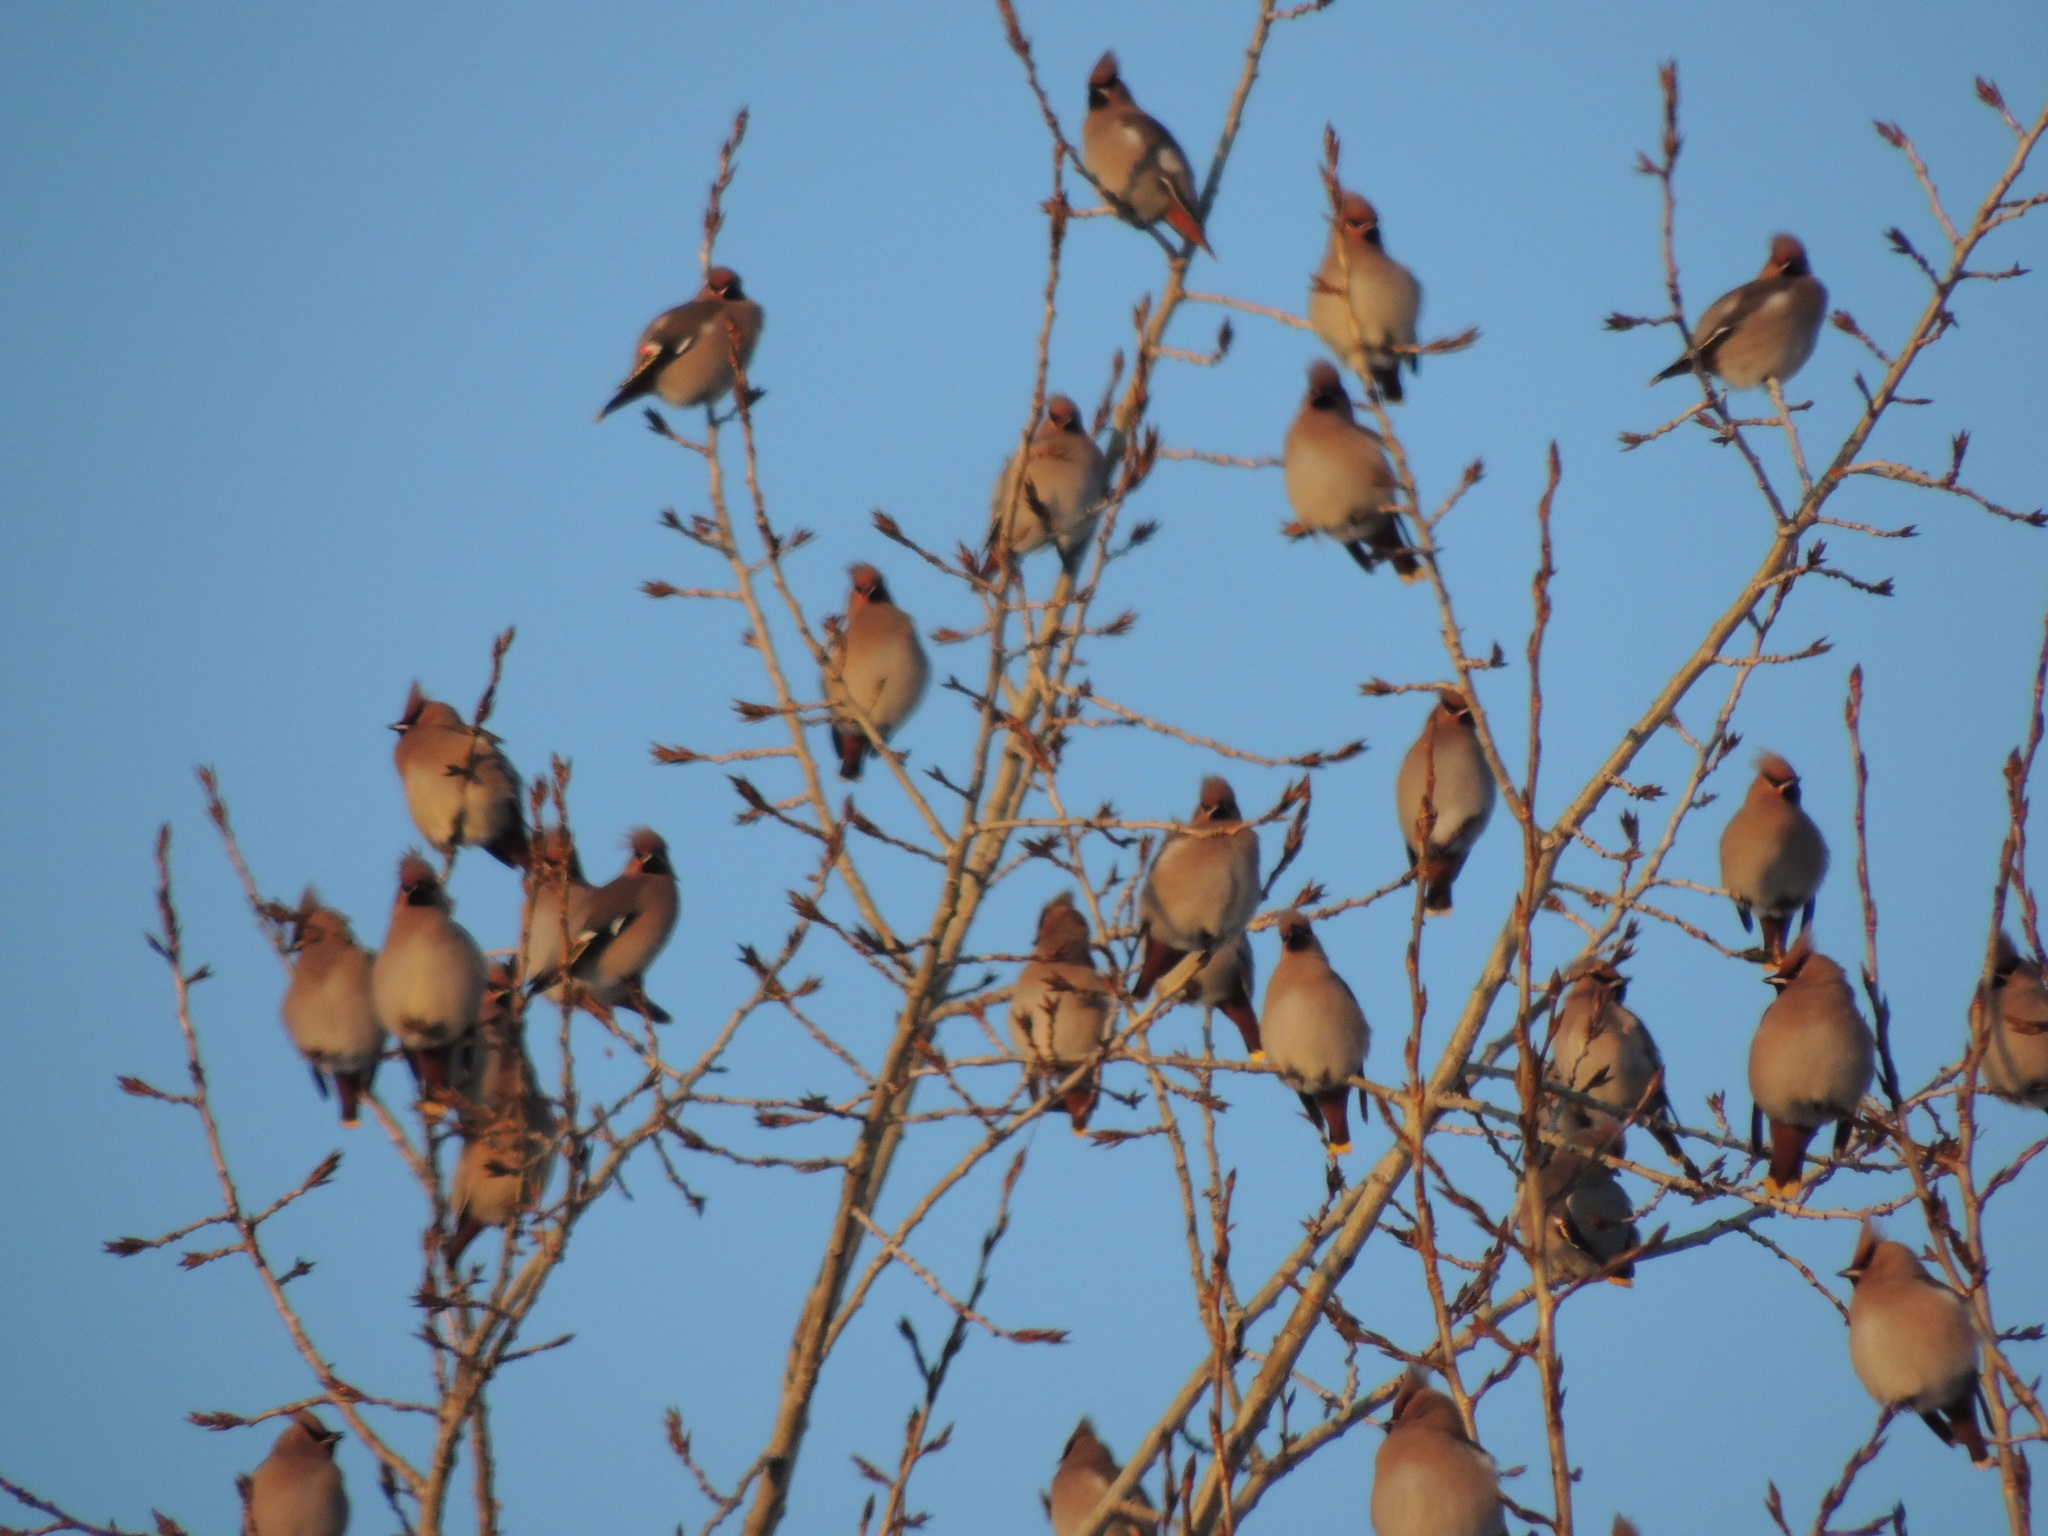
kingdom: Animalia
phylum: Chordata
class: Aves
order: Passeriformes
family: Bombycillidae
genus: Bombycilla
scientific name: Bombycilla garrulus
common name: Bohemian waxwing
